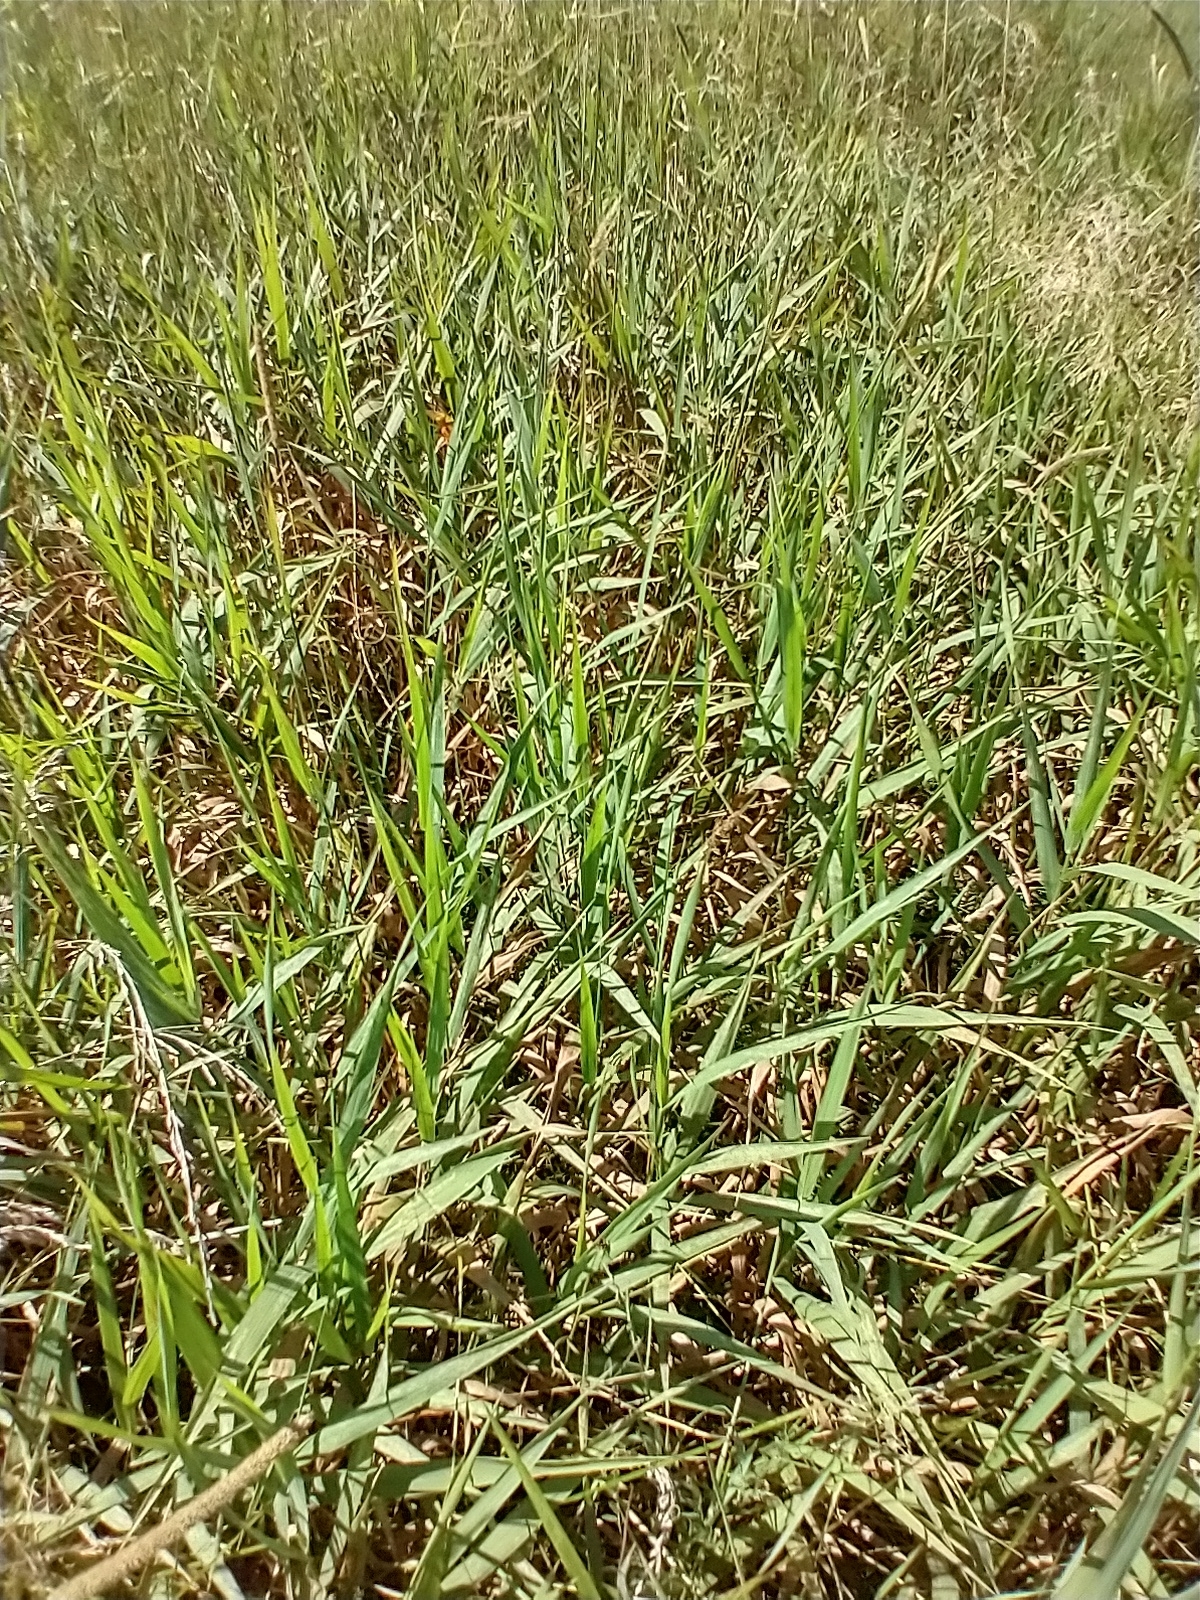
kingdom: Plantae
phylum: Tracheophyta
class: Liliopsida
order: Poales
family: Poaceae
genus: Phalaris
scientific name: Phalaris arundinacea
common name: Reed canary-grass
